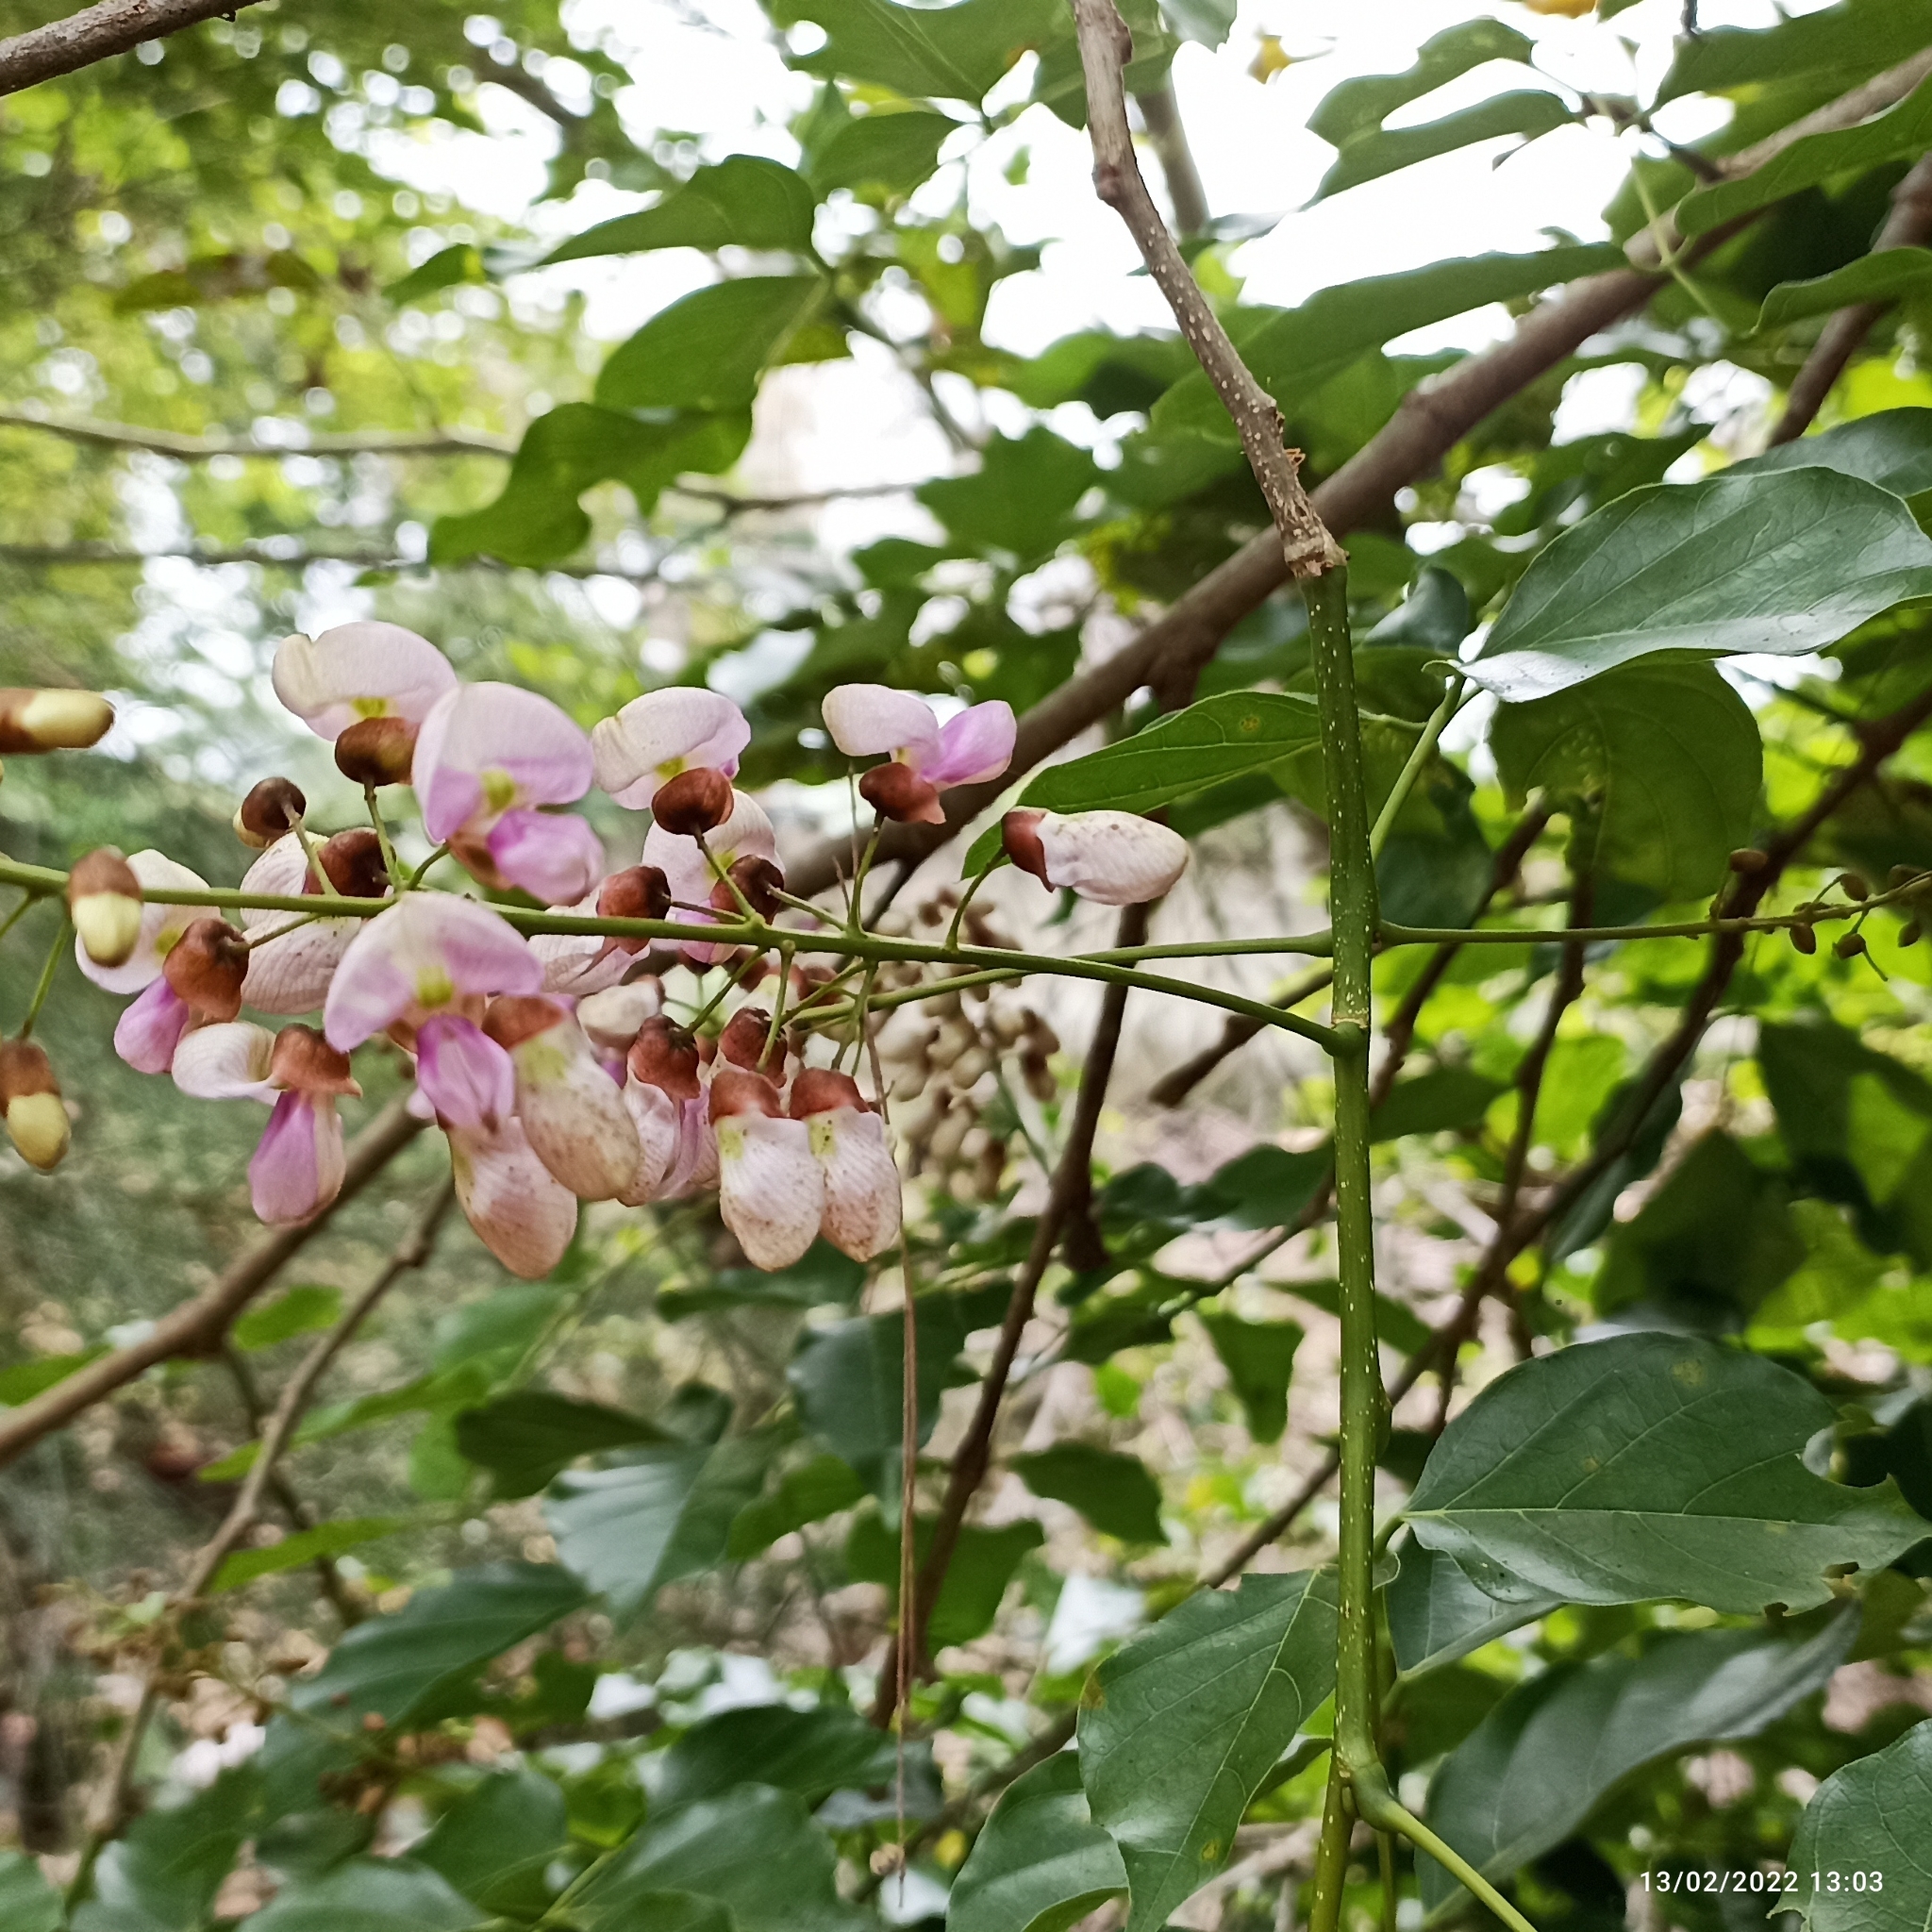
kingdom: Plantae
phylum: Tracheophyta
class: Magnoliopsida
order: Fabales
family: Fabaceae
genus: Pongamia
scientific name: Pongamia pinnata
